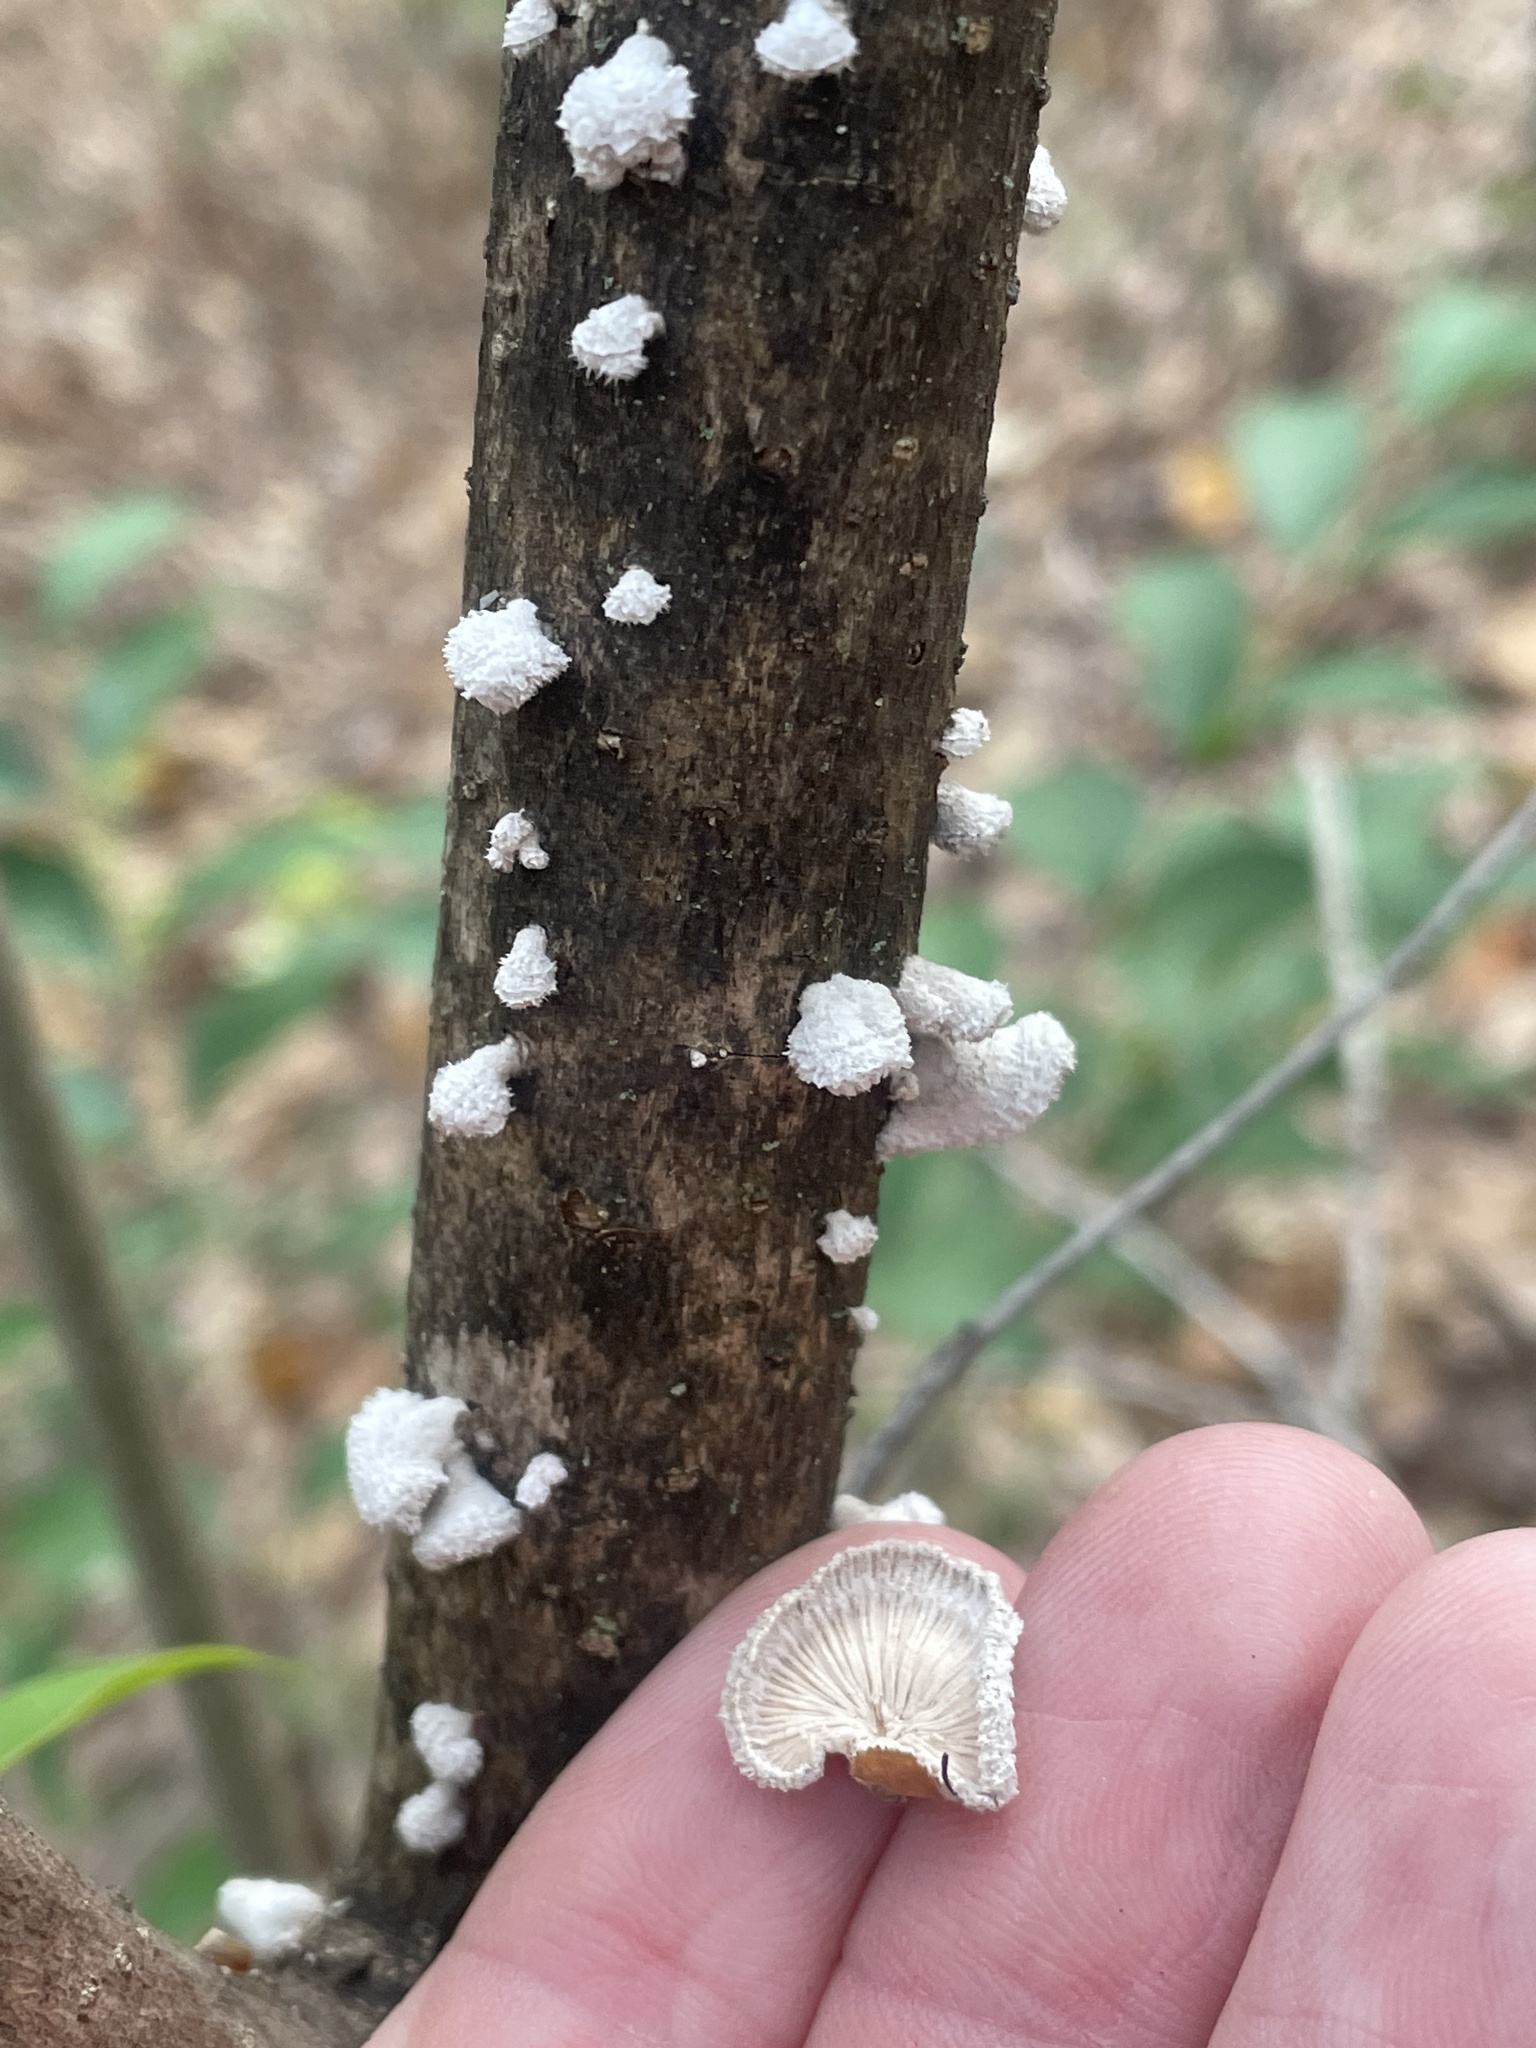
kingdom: Fungi
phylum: Basidiomycota
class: Agaricomycetes
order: Agaricales
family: Schizophyllaceae
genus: Schizophyllum
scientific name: Schizophyllum commune
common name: Common porecrust
